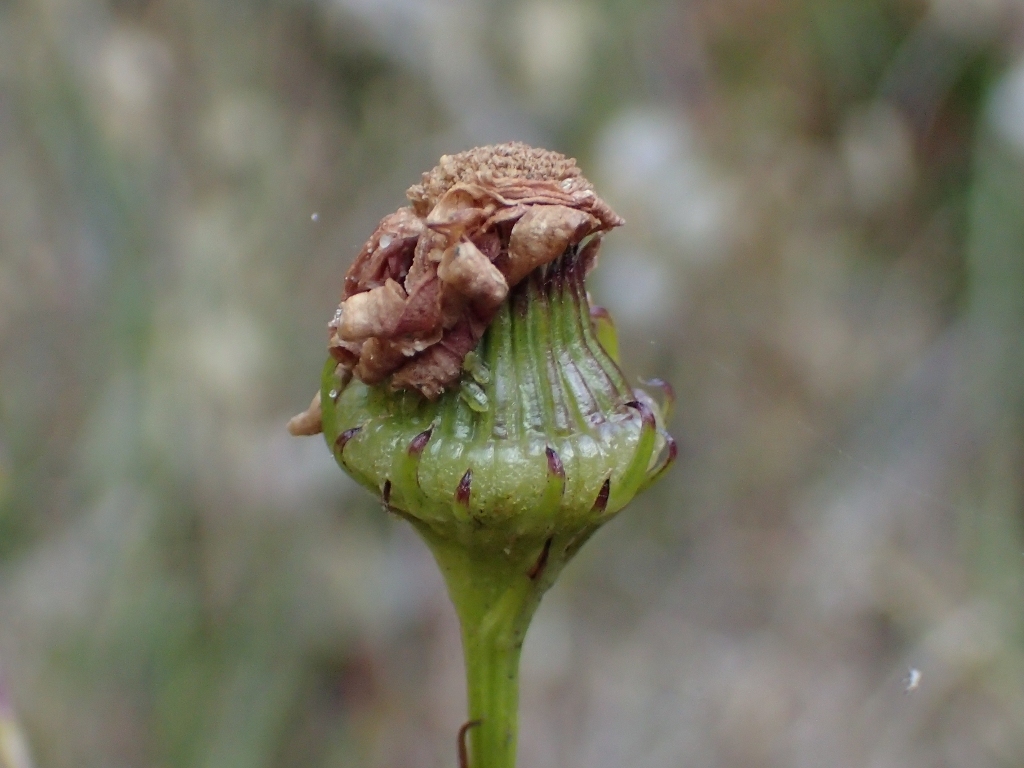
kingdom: Plantae
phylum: Tracheophyta
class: Magnoliopsida
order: Asterales
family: Asteraceae
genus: Senecio
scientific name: Senecio glastifolius
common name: Woad-leaved ragwort
